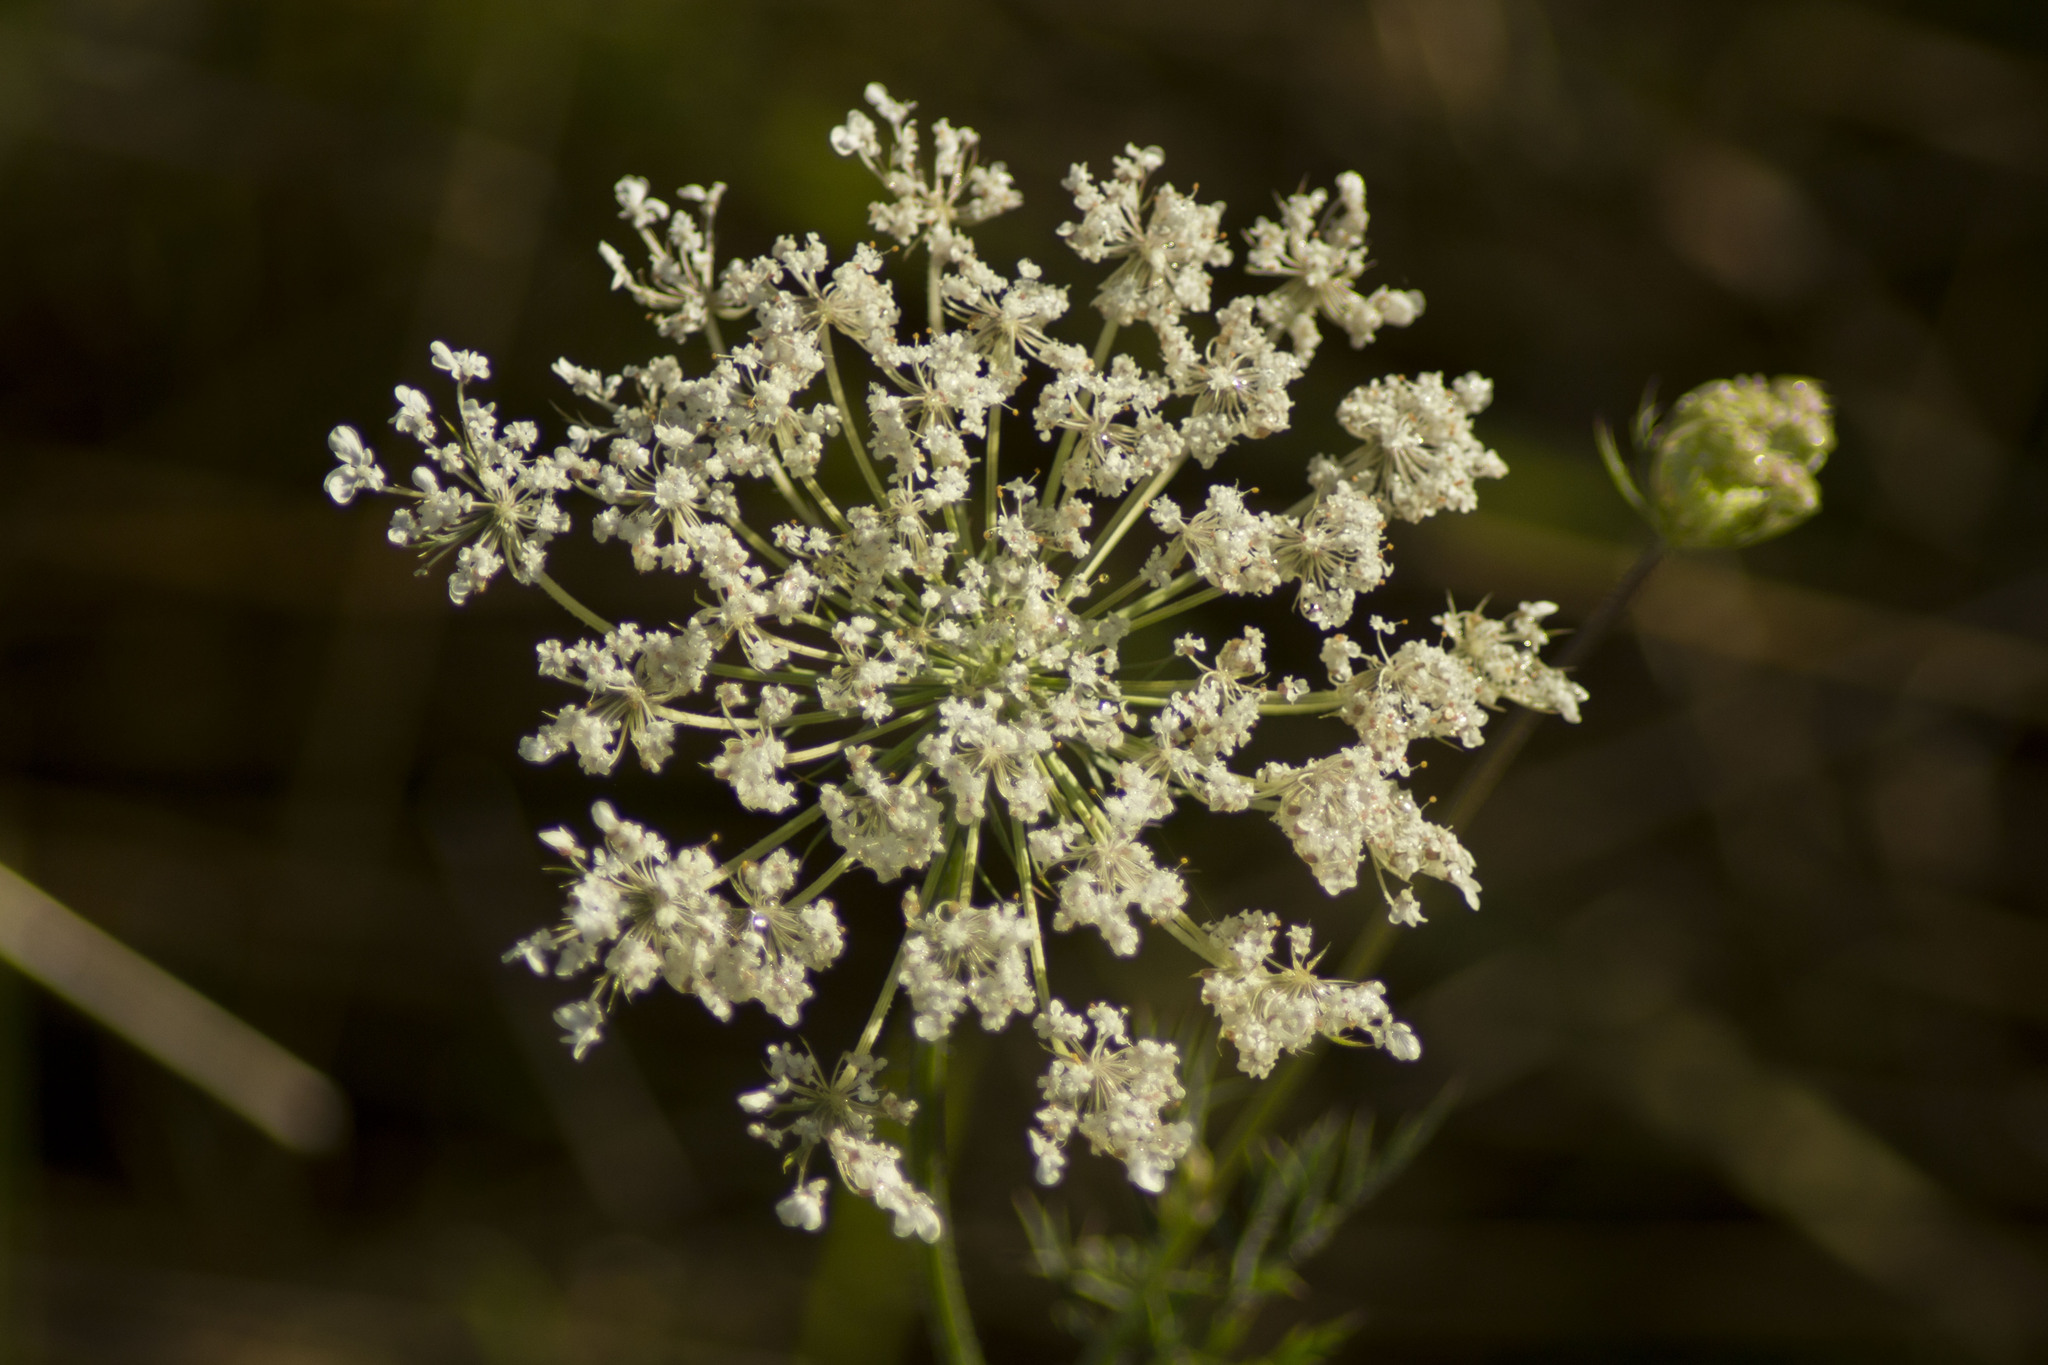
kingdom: Plantae
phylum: Tracheophyta
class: Magnoliopsida
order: Apiales
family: Apiaceae
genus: Daucus
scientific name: Daucus carota
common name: Wild carrot
